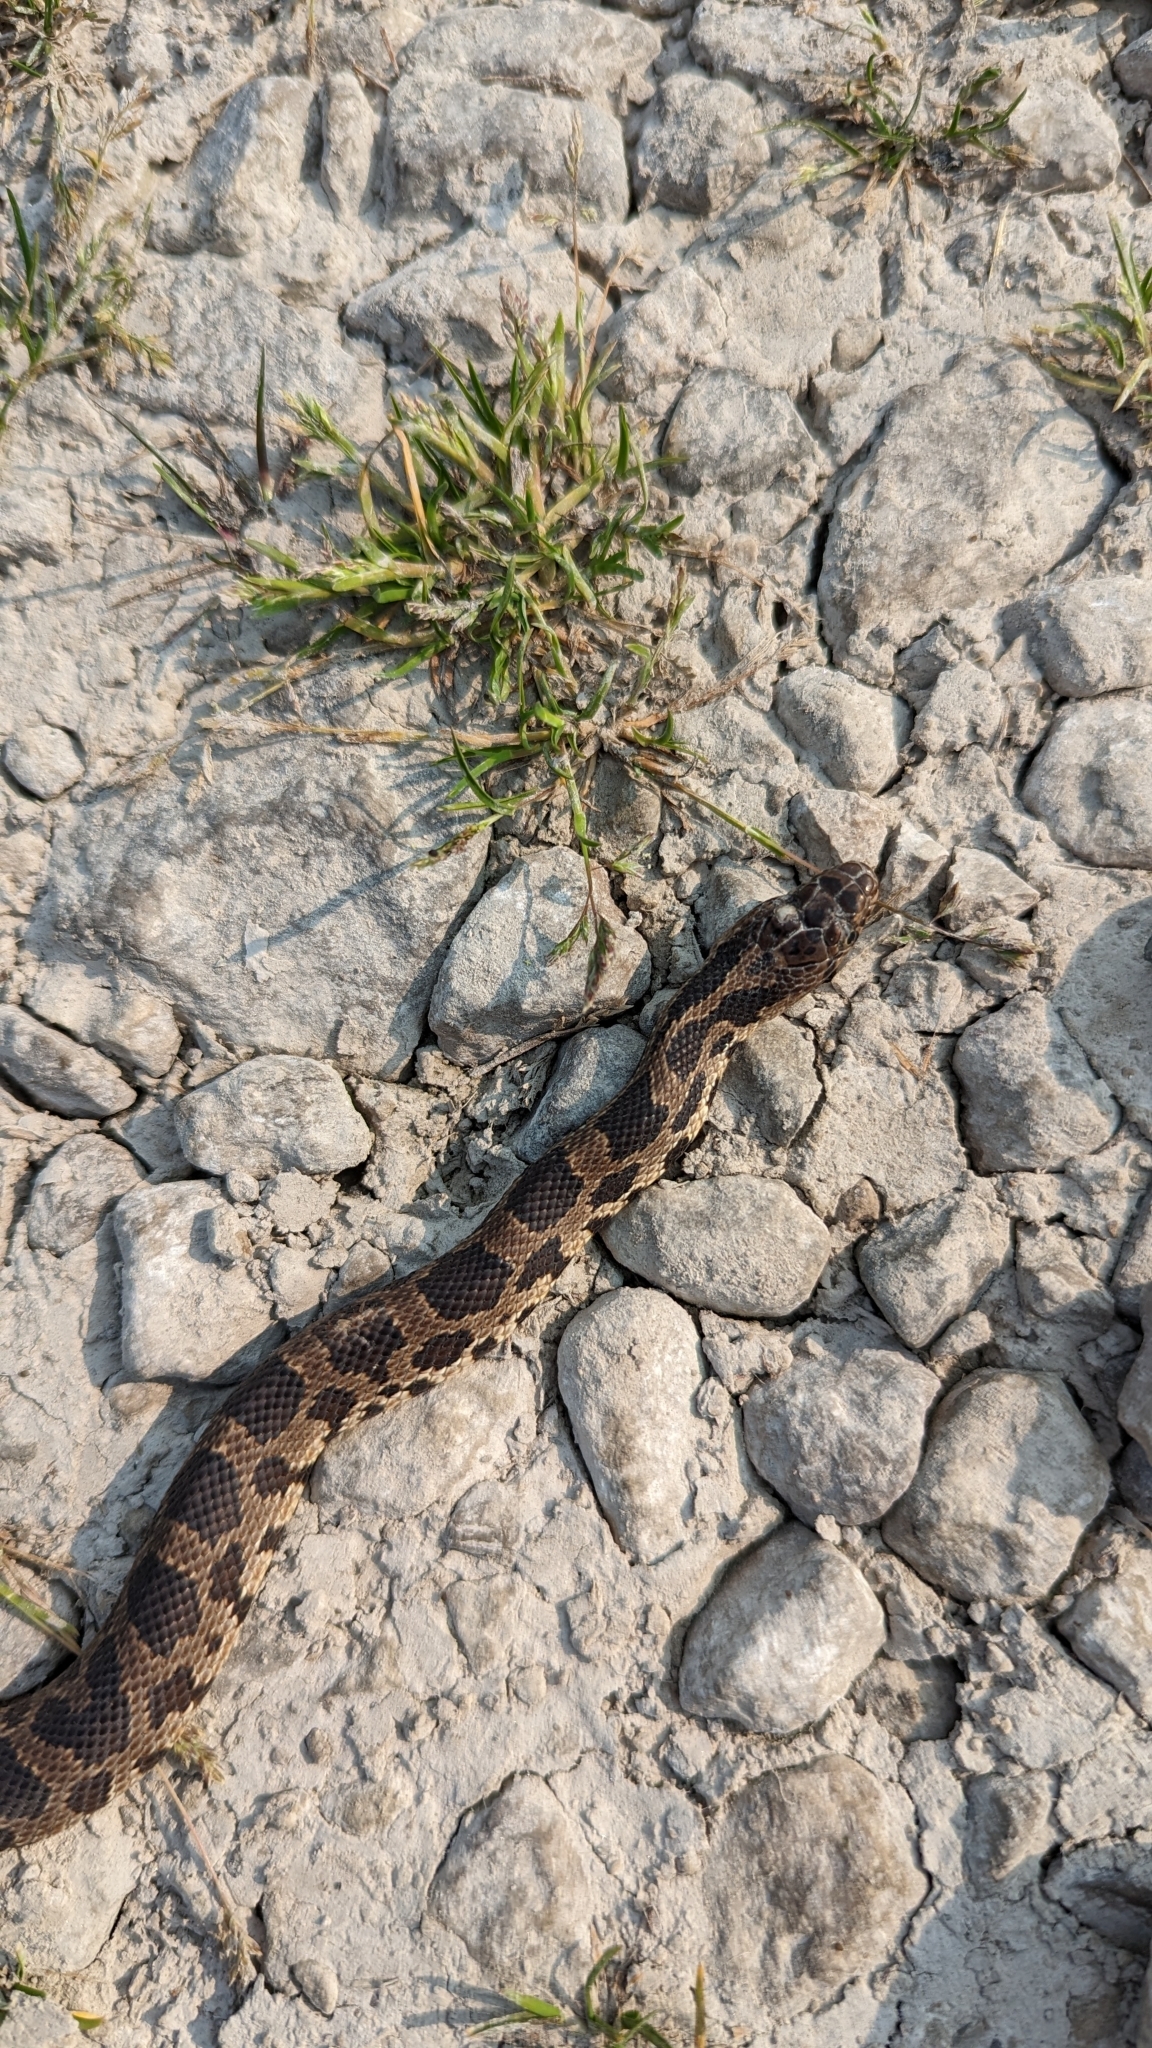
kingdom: Animalia
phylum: Chordata
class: Squamata
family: Colubridae
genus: Pantherophis
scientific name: Pantherophis vulpinus
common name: Eastern fox snake
